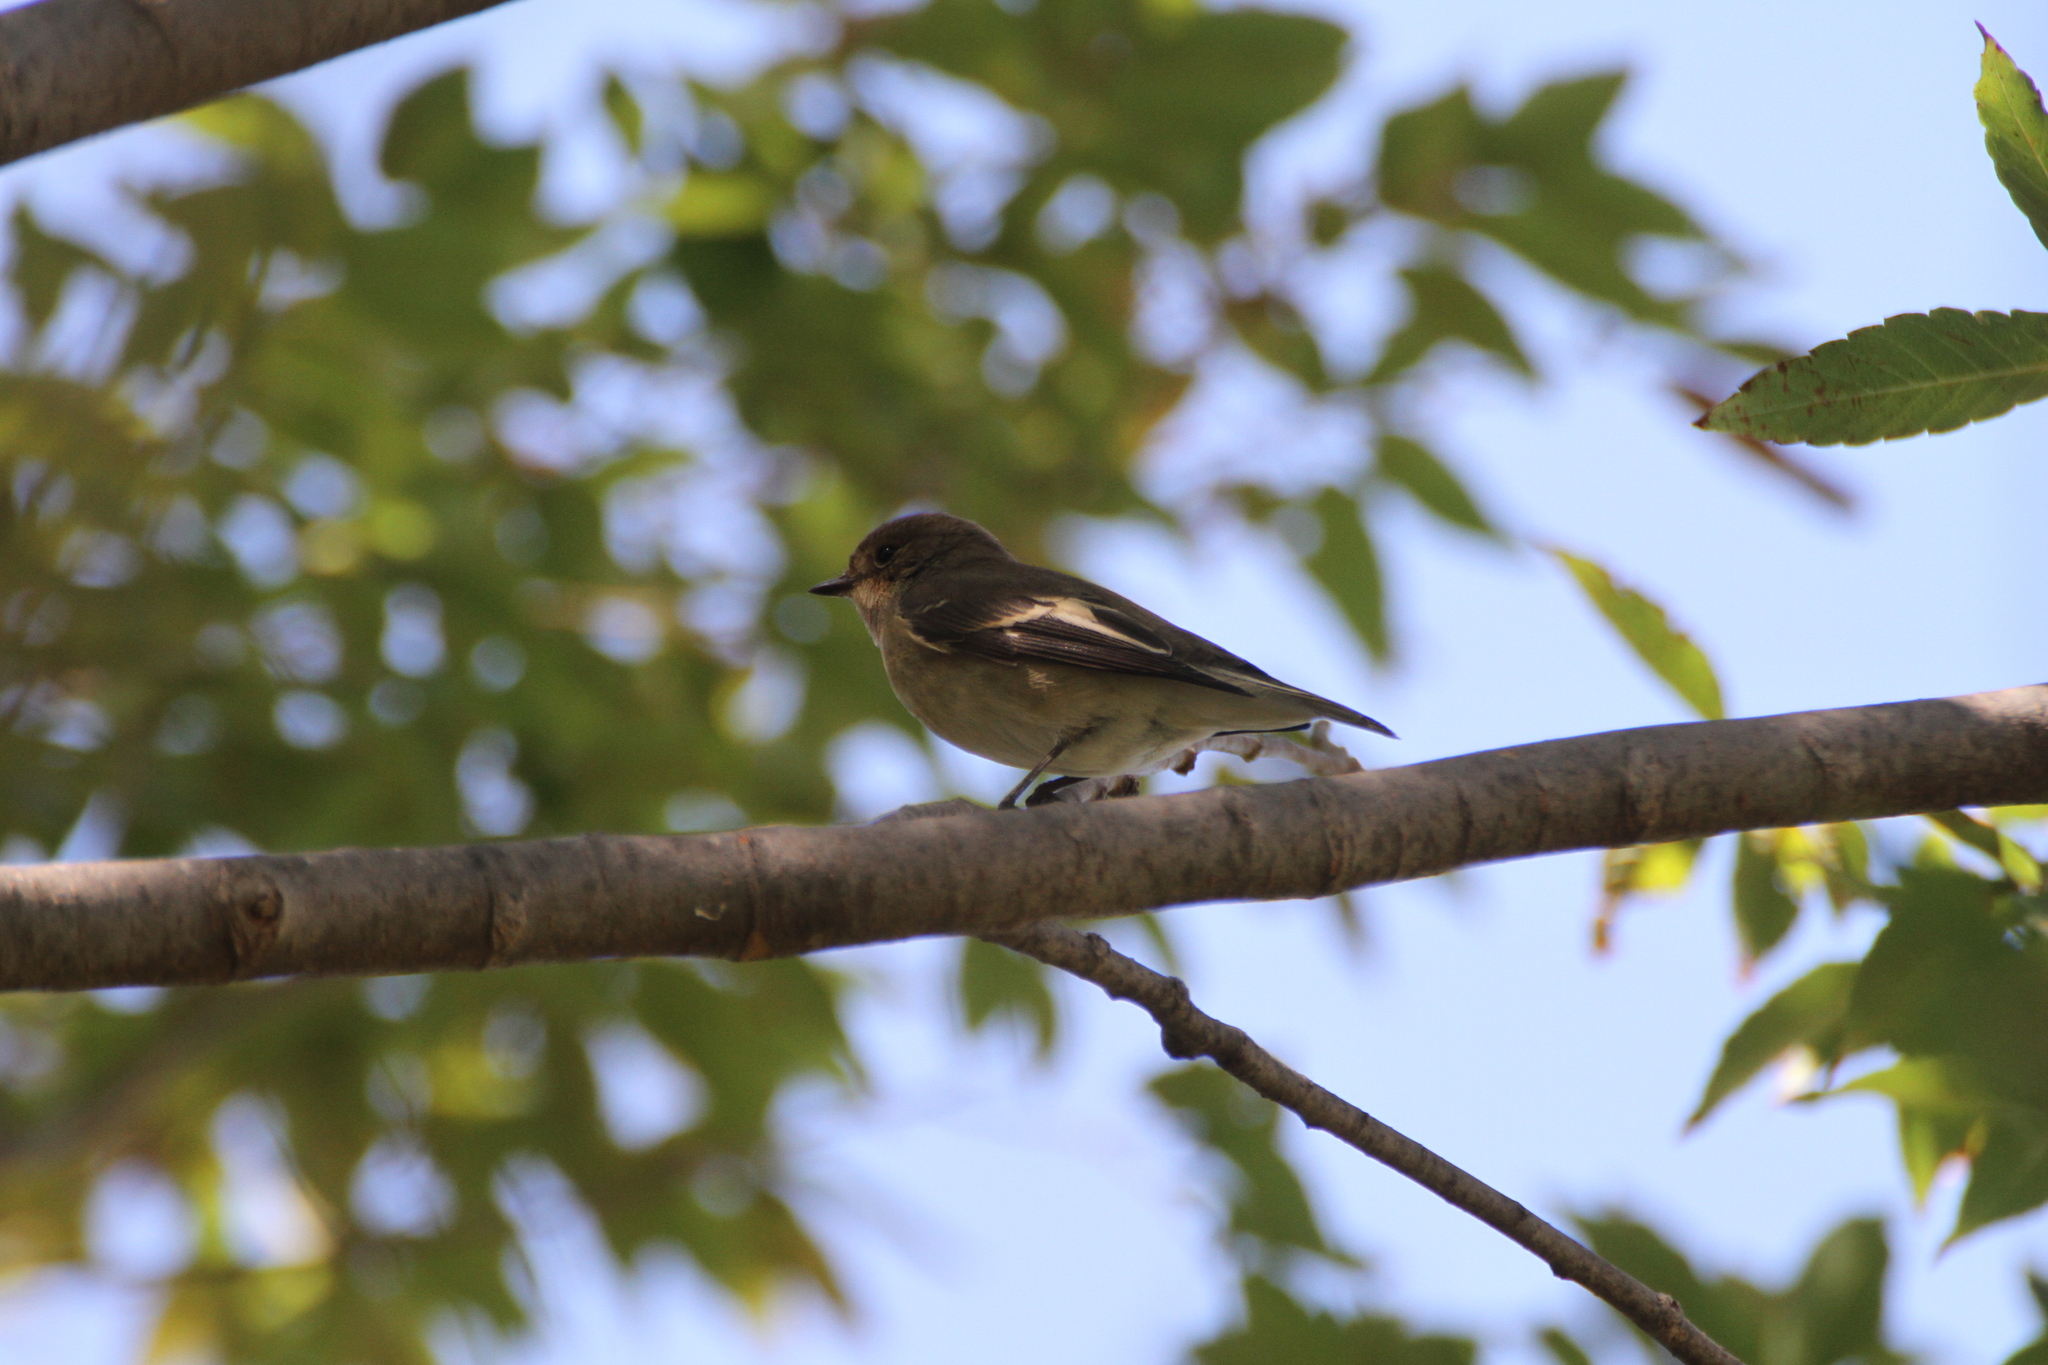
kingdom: Animalia
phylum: Chordata
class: Aves
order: Passeriformes
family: Muscicapidae
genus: Ficedula
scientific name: Ficedula hypoleuca
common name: European pied flycatcher
